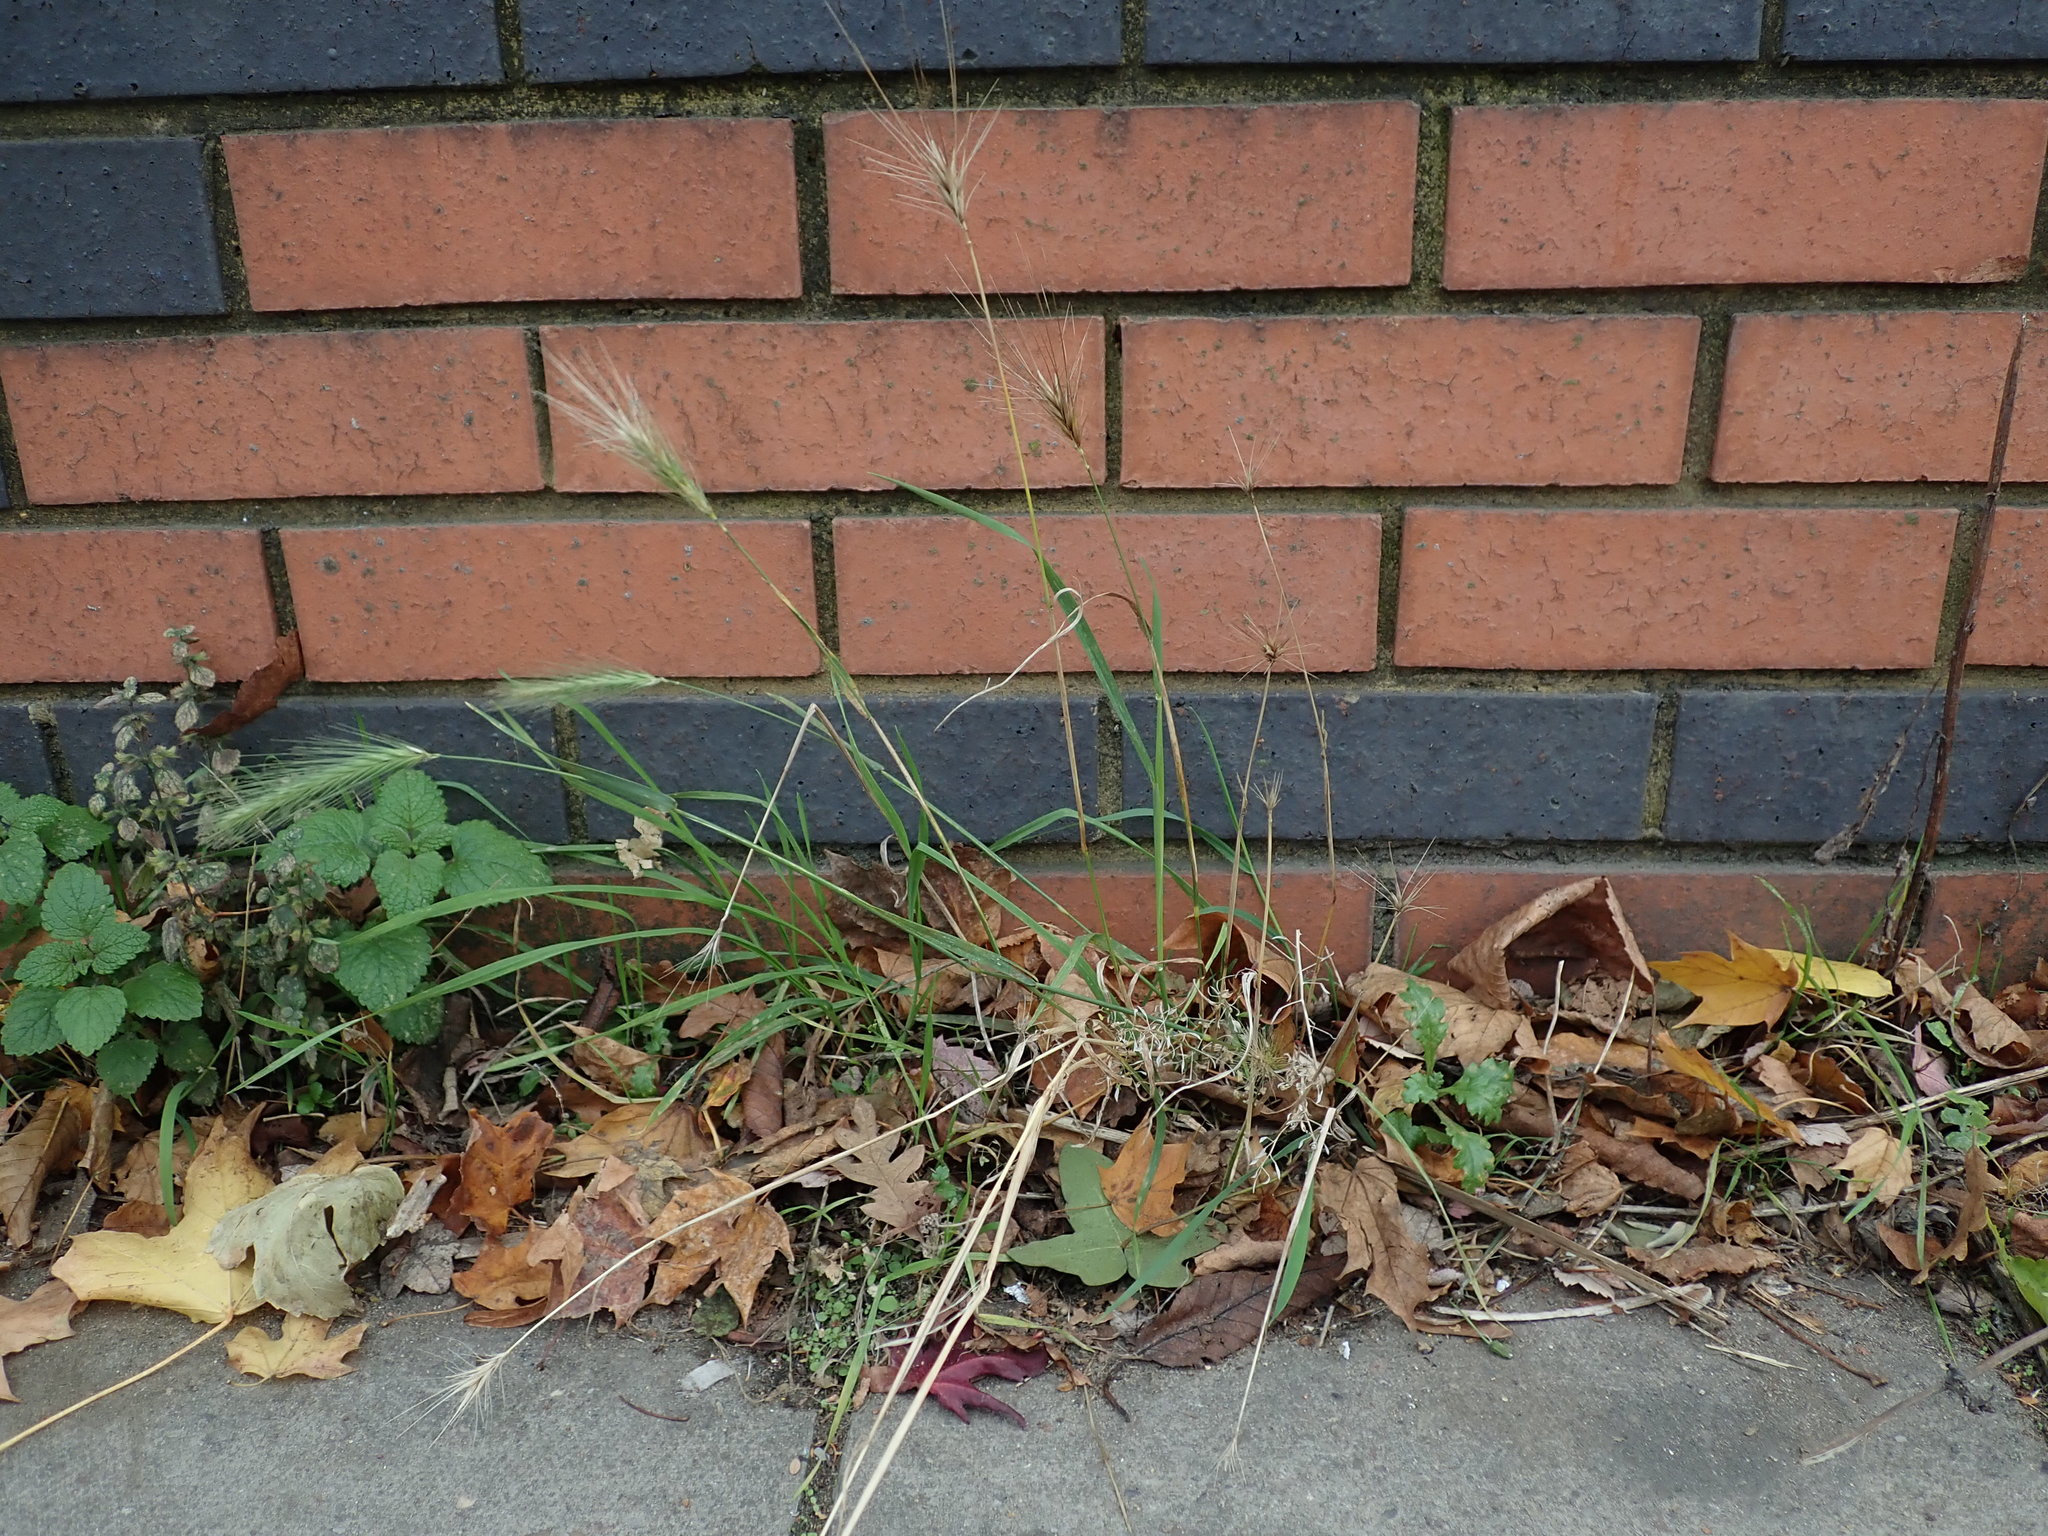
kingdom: Plantae
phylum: Tracheophyta
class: Liliopsida
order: Poales
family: Poaceae
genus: Hordeum
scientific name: Hordeum murinum
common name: Wall barley
